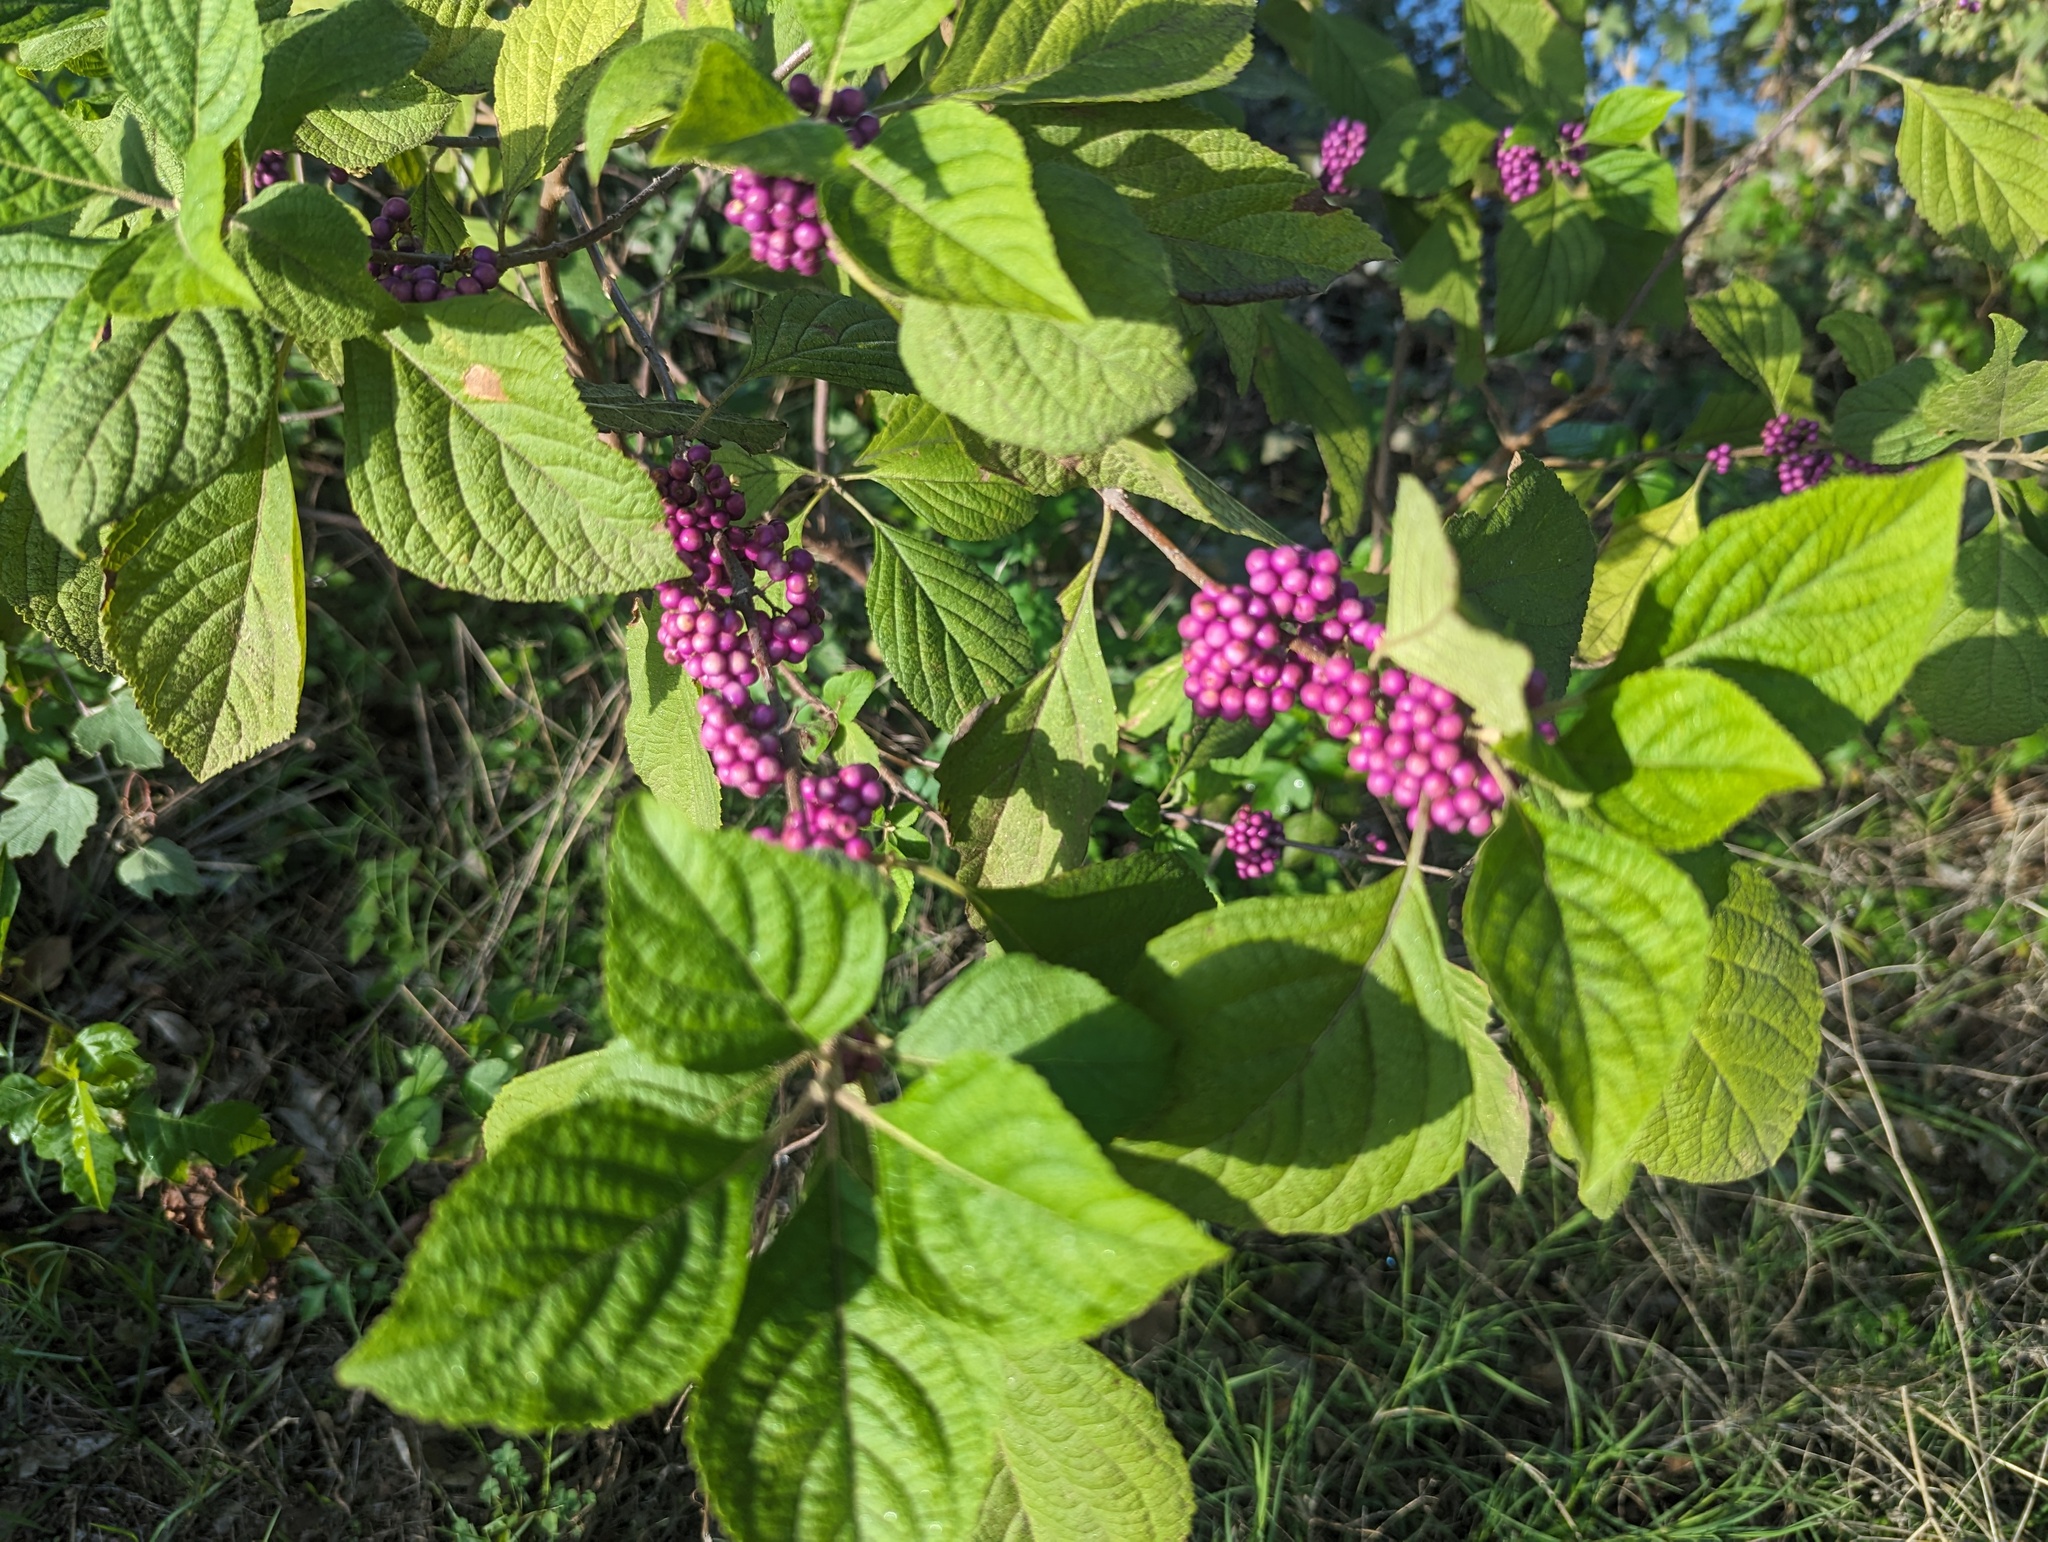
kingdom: Plantae
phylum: Tracheophyta
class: Magnoliopsida
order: Lamiales
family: Lamiaceae
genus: Callicarpa
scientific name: Callicarpa americana
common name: American beautyberry
